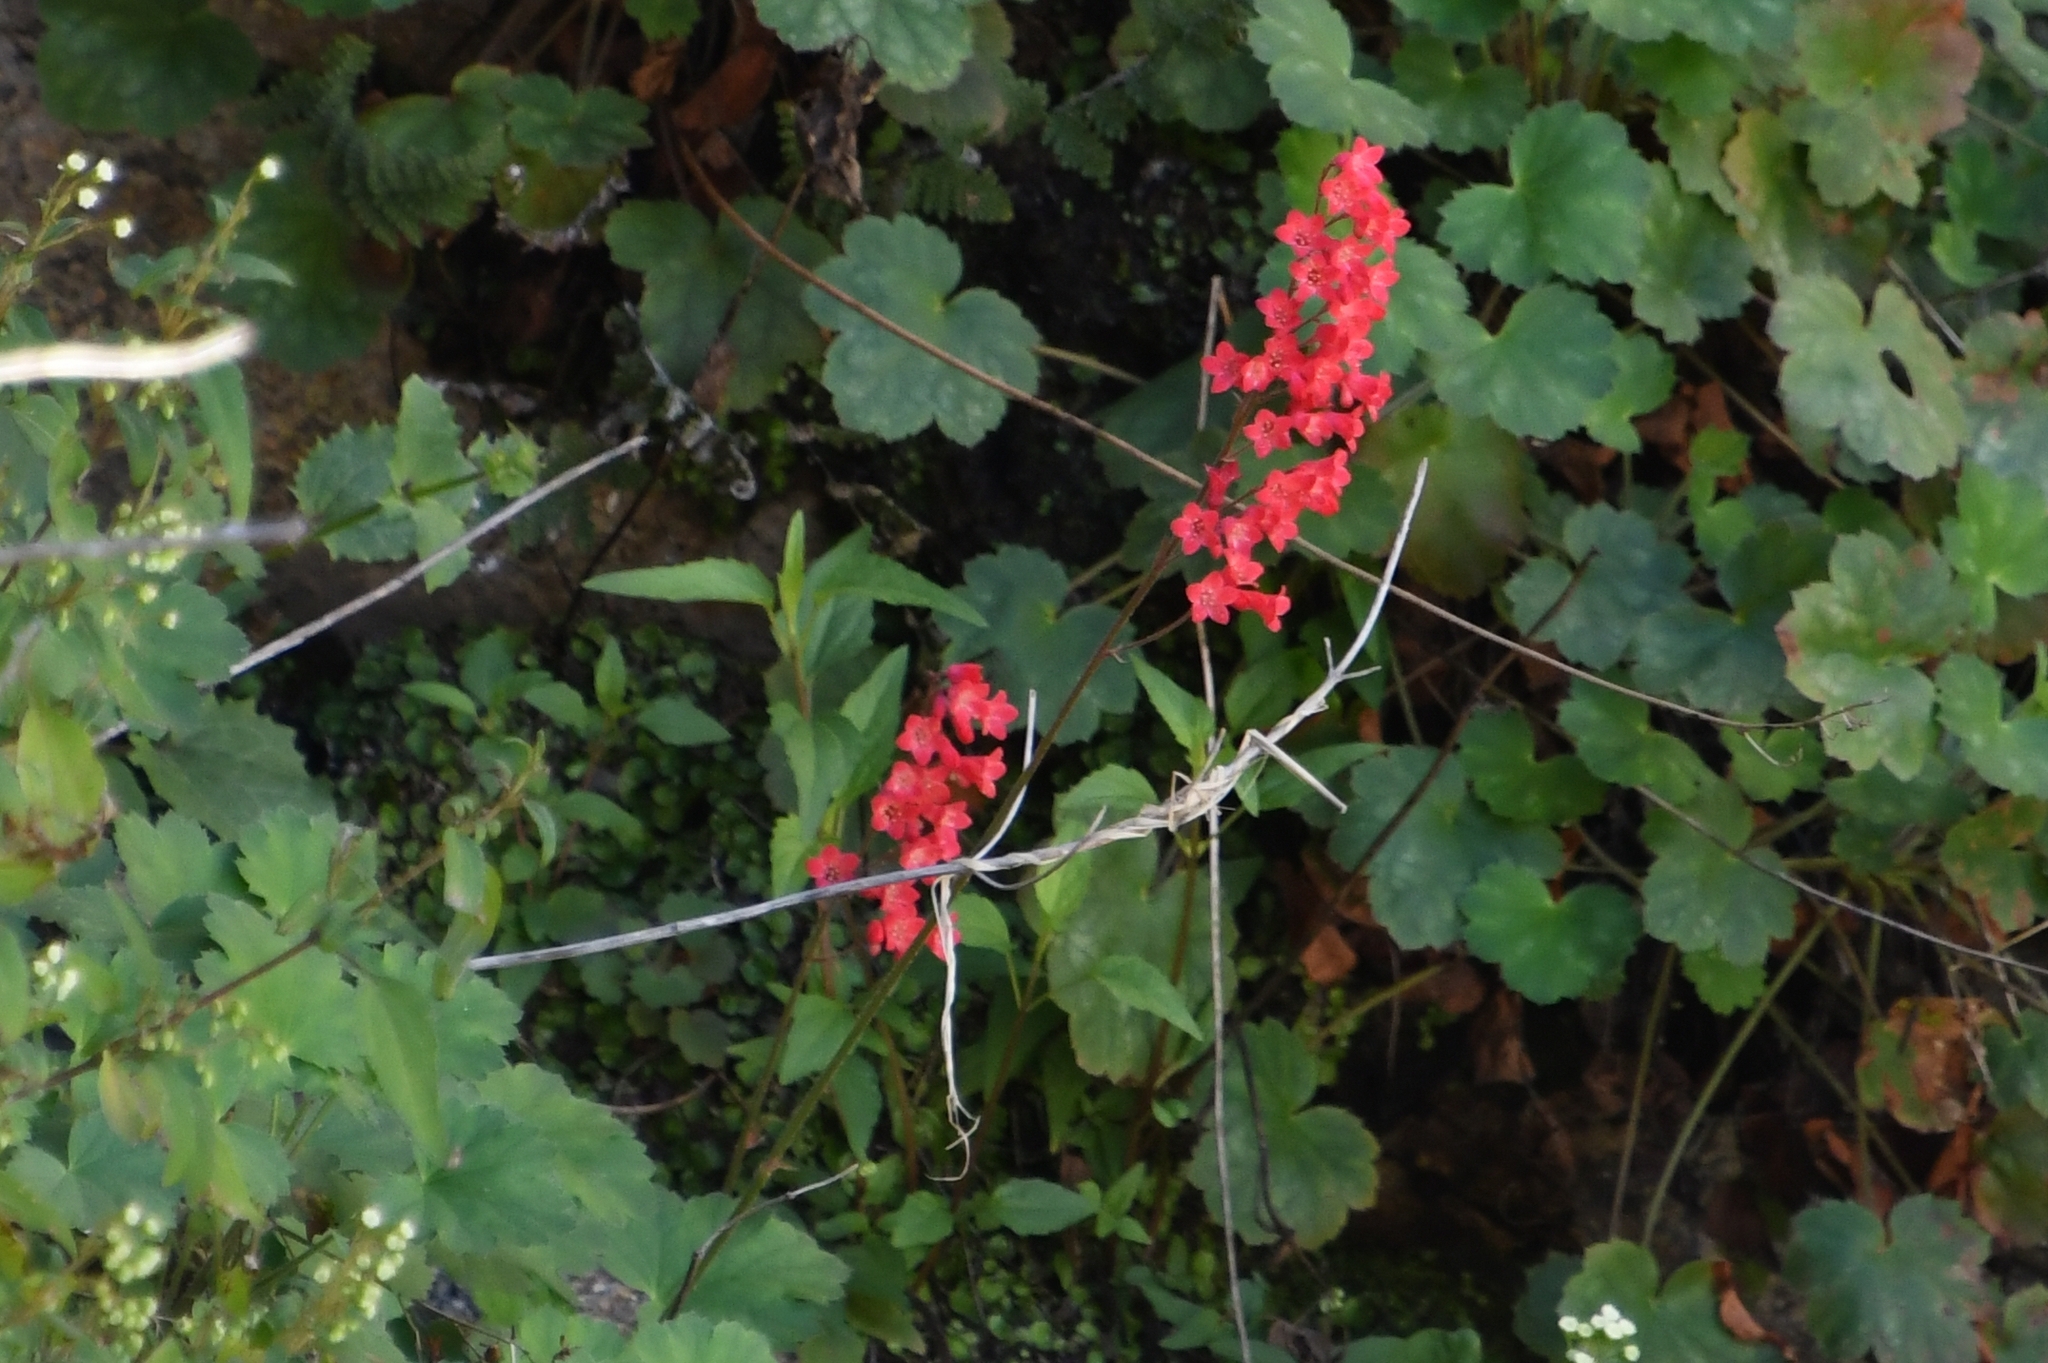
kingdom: Plantae
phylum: Tracheophyta
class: Magnoliopsida
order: Saxifragales
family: Saxifragaceae
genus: Heuchera
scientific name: Heuchera sanguinea
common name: Coralbells
